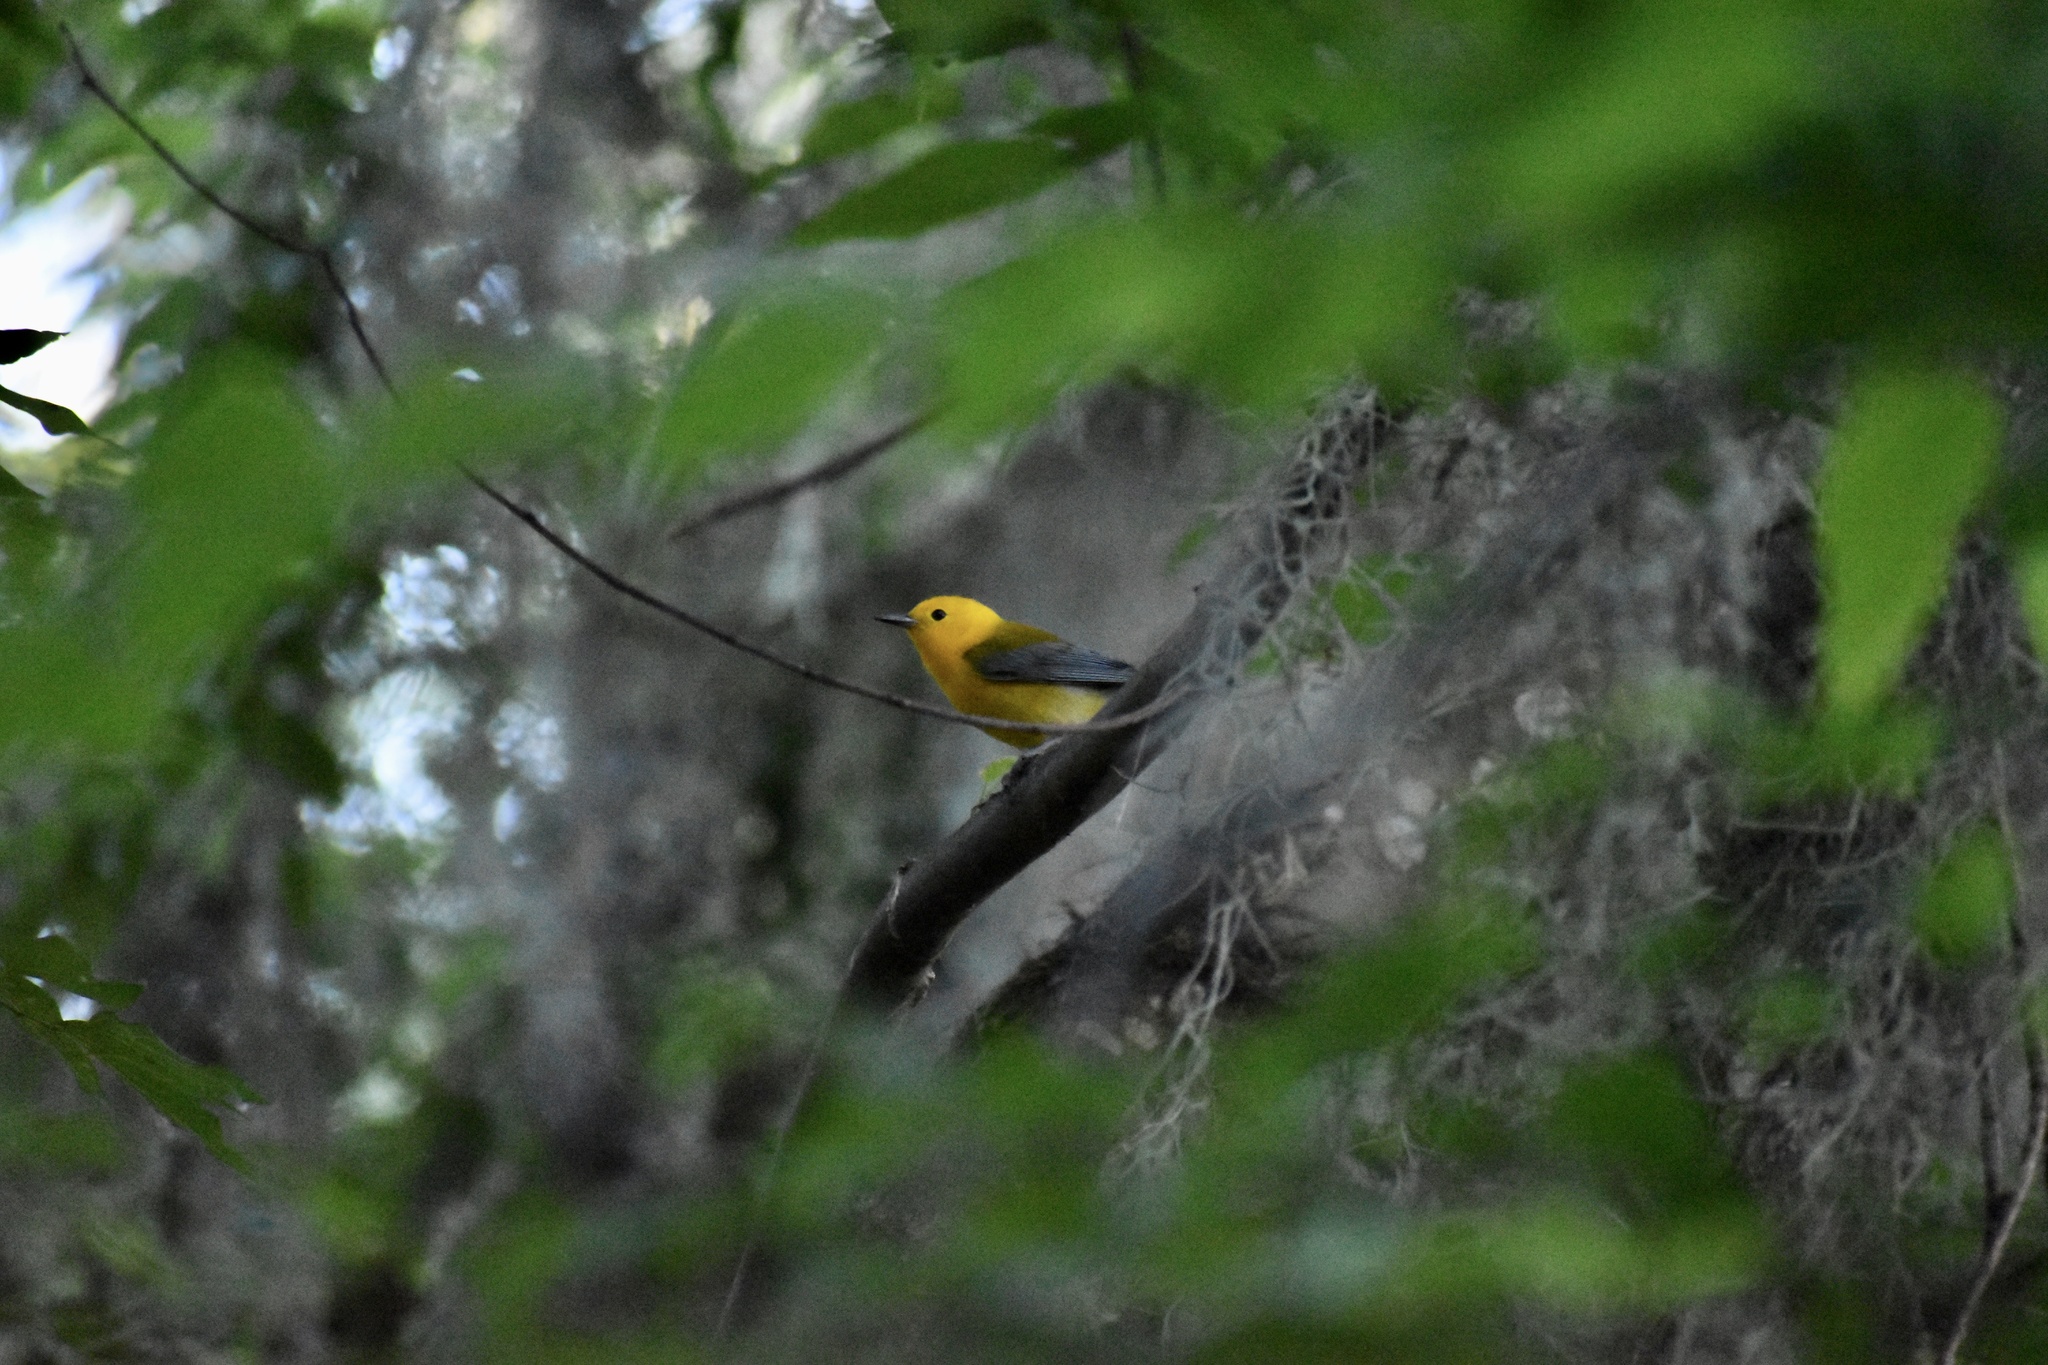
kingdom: Animalia
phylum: Chordata
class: Aves
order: Passeriformes
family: Parulidae
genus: Protonotaria
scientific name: Protonotaria citrea
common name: Prothonotary warbler
